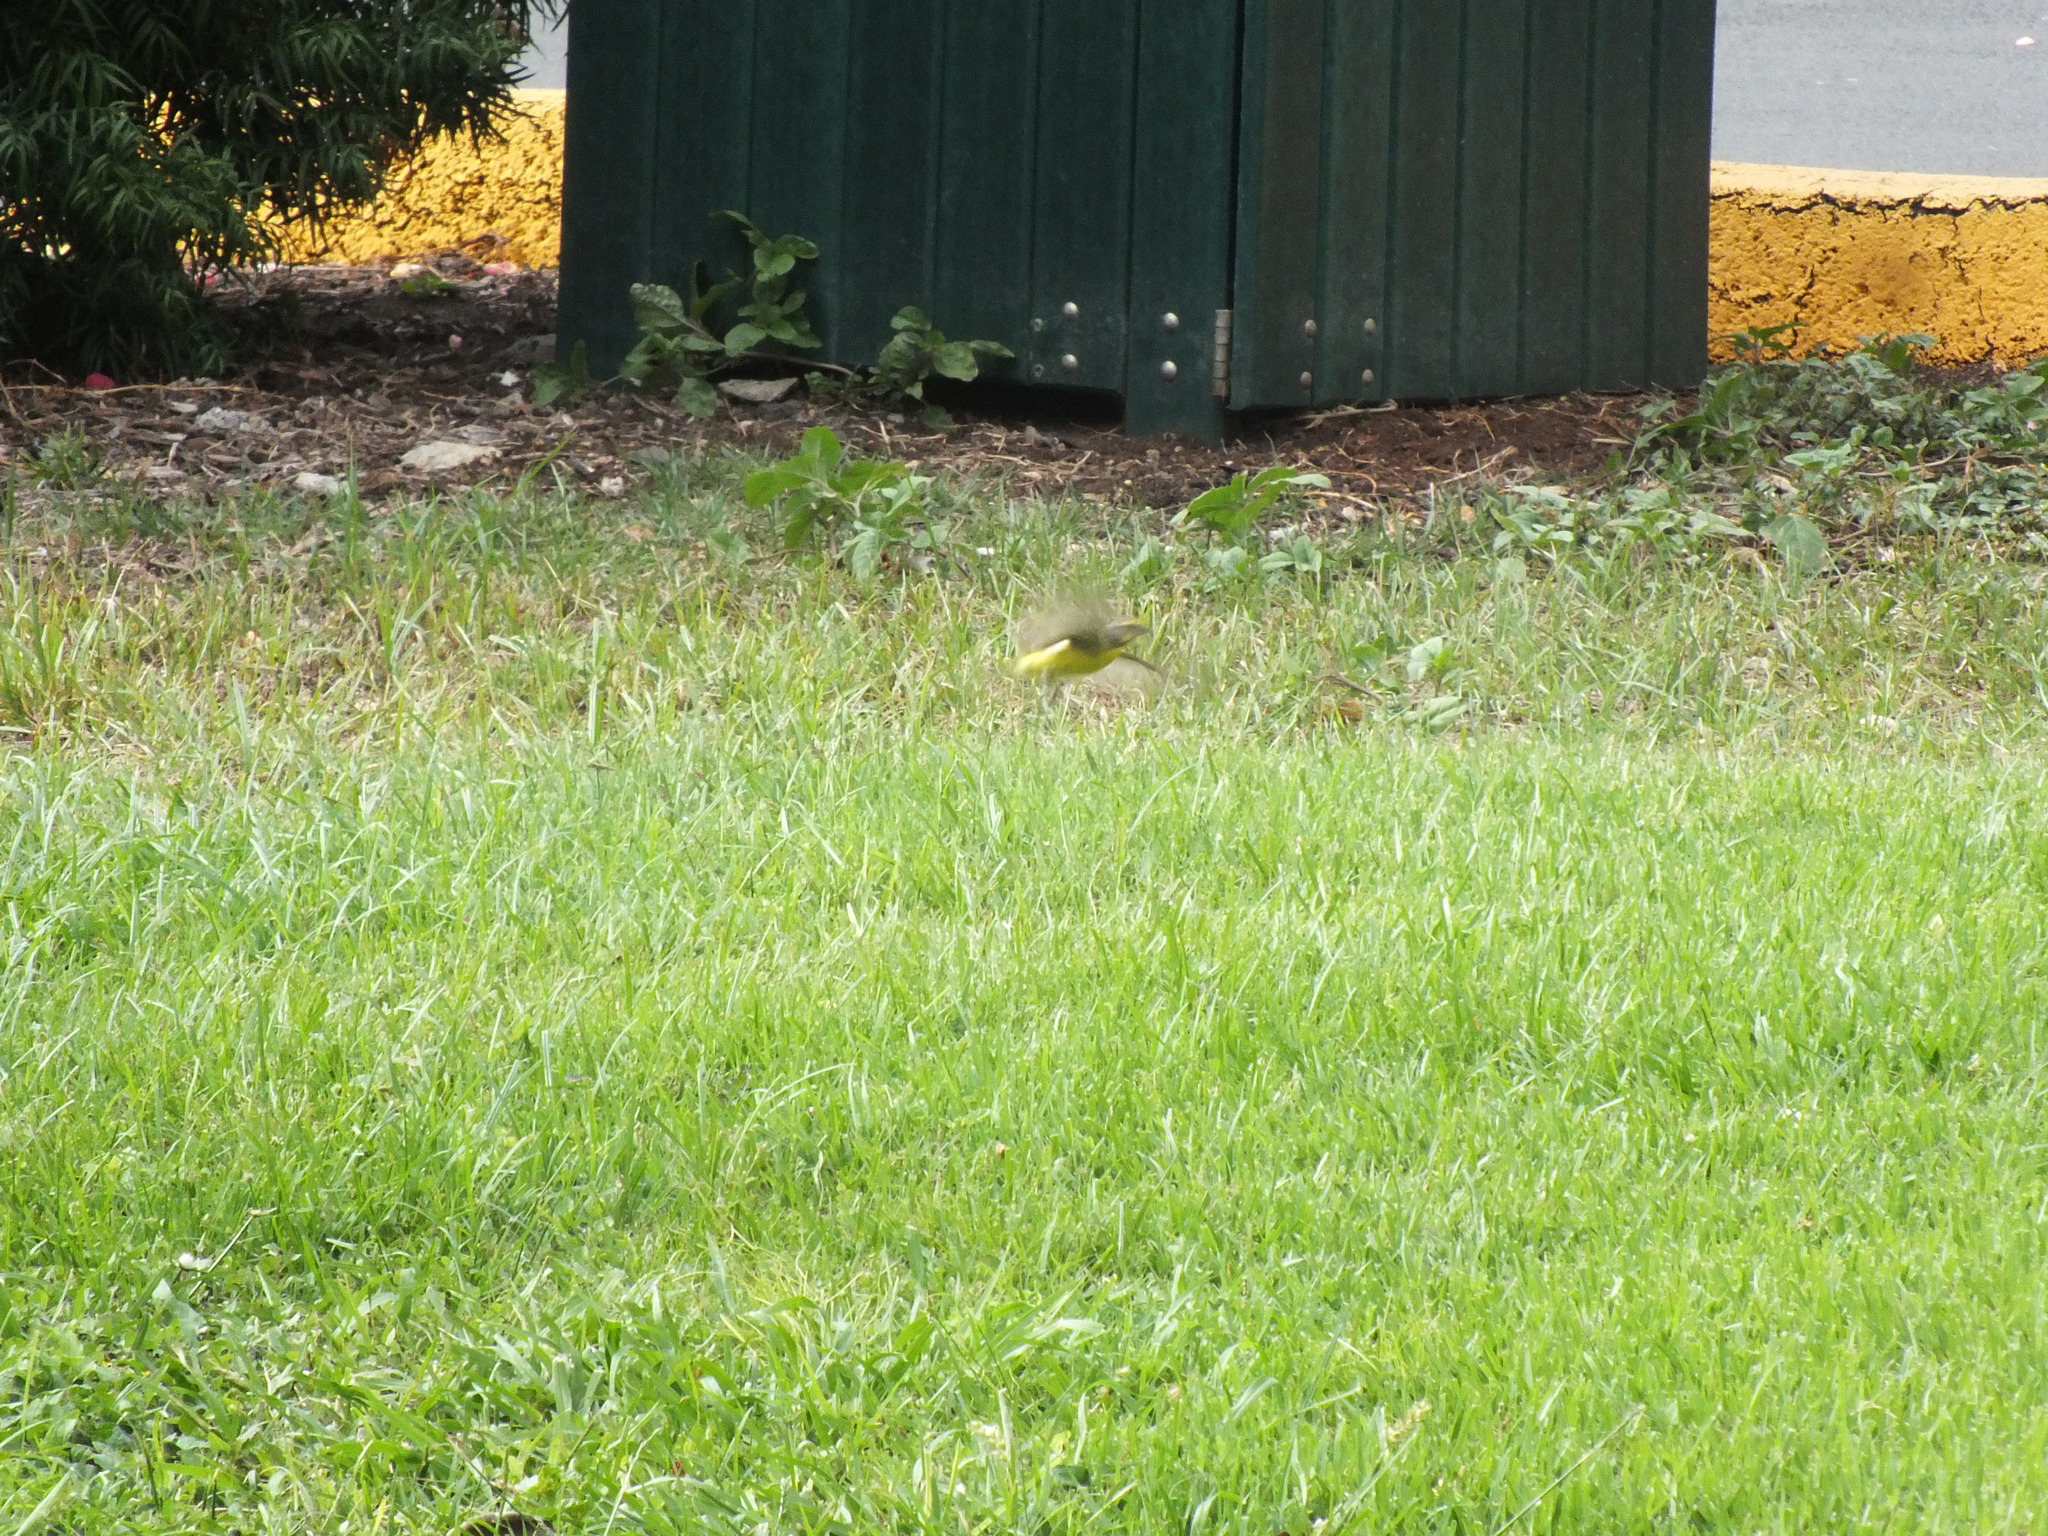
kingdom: Animalia
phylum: Chordata
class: Aves
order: Passeriformes
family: Fringillidae
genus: Crithagra
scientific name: Crithagra mozambica
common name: Yellow-fronted canary
